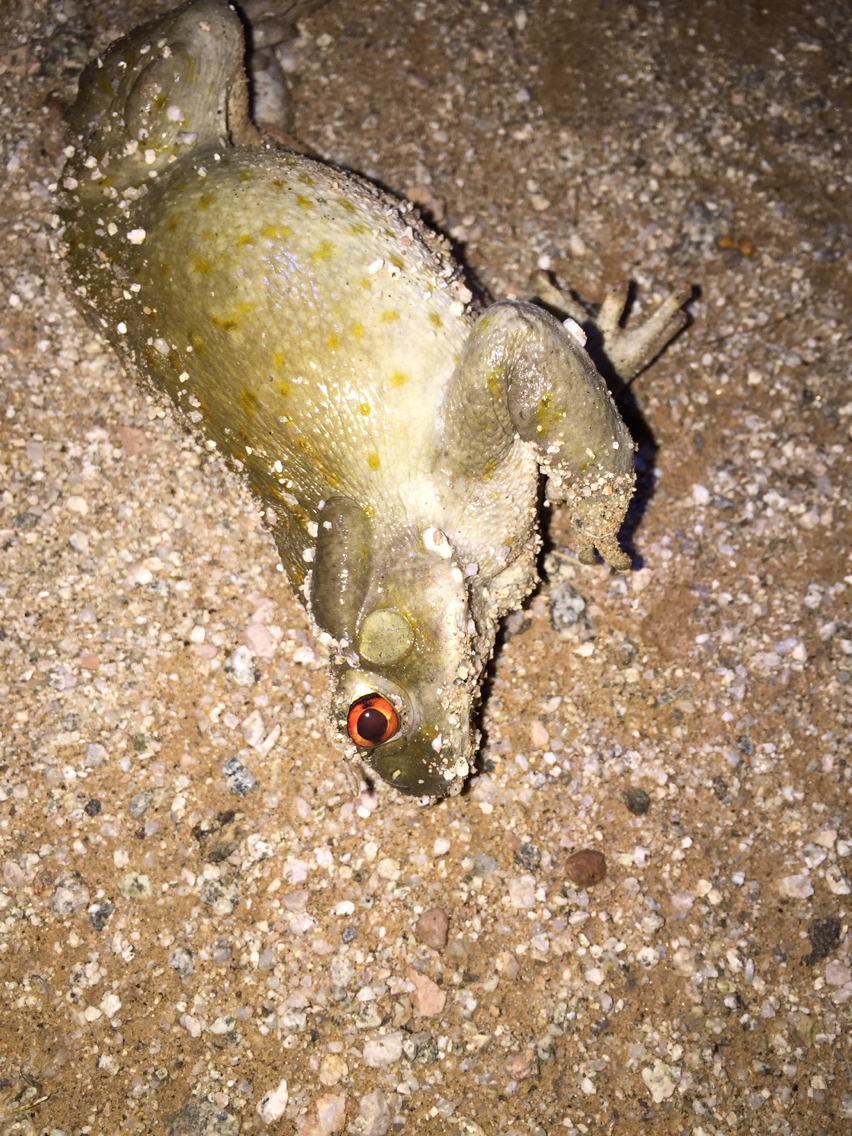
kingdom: Animalia
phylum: Chordata
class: Amphibia
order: Anura
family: Bufonidae
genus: Incilius
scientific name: Incilius alvarius
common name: Sonoran desert toad
